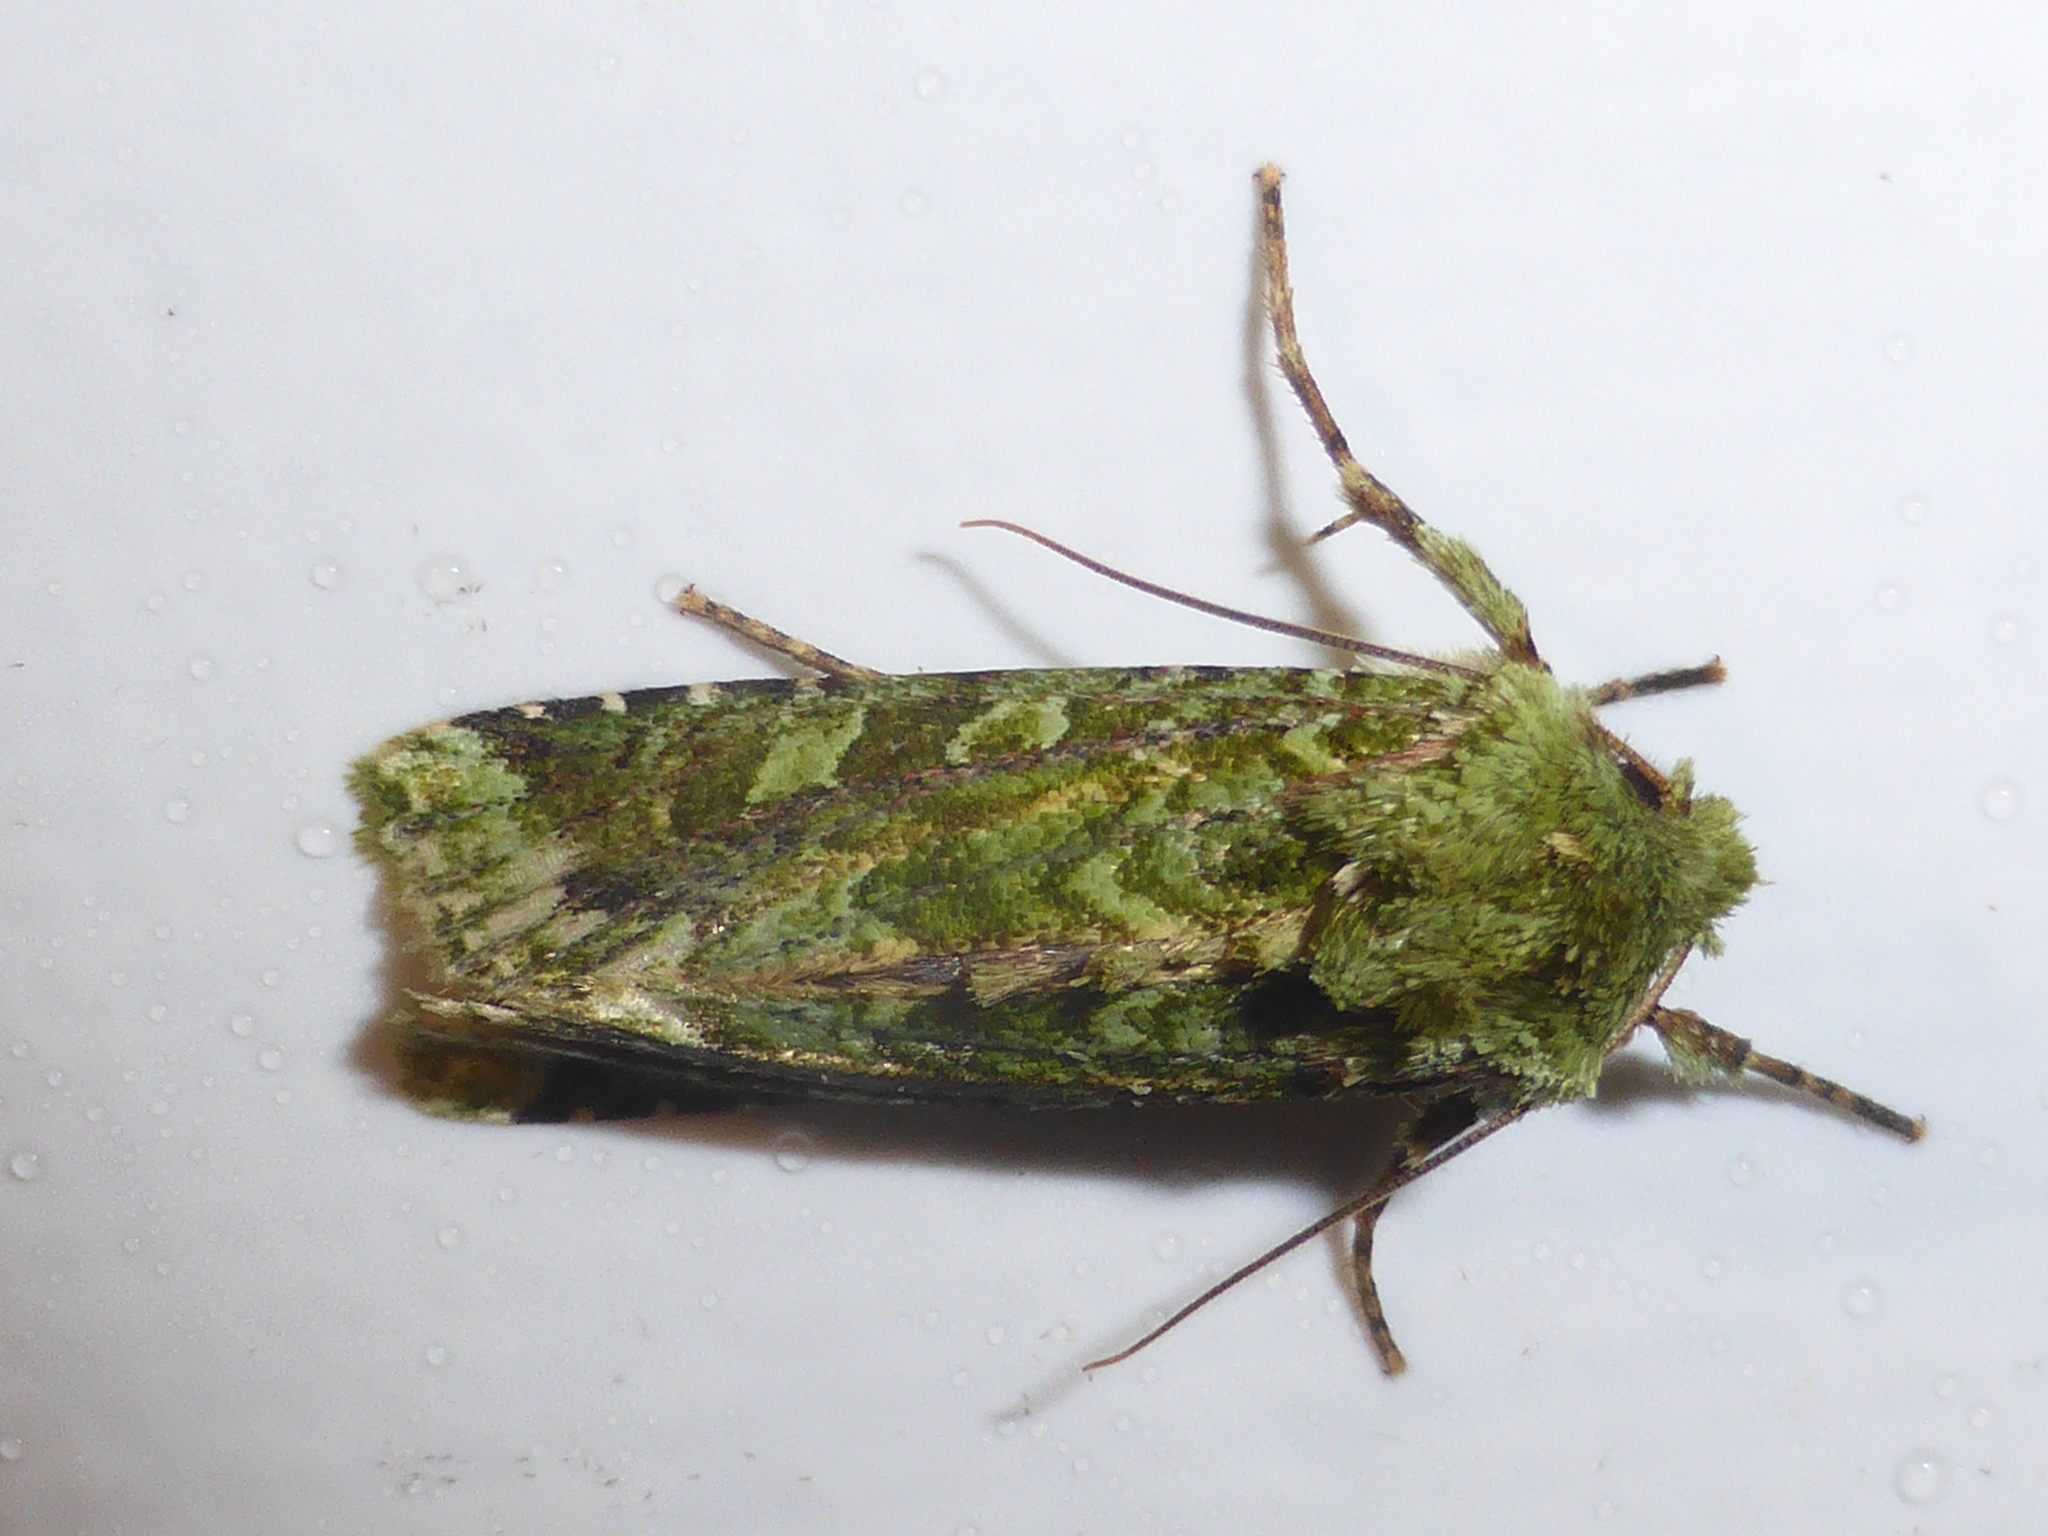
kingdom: Animalia
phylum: Arthropoda
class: Insecta
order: Lepidoptera
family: Noctuidae
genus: Feredayia
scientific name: Feredayia grammosa
